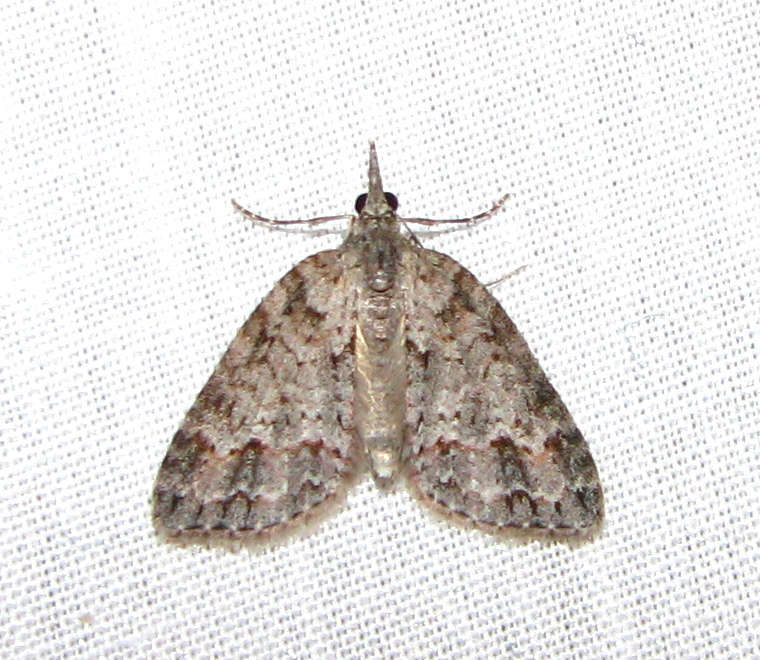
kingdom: Animalia
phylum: Arthropoda
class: Insecta
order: Lepidoptera
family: Geometridae
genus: Microdes
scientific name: Microdes villosata
